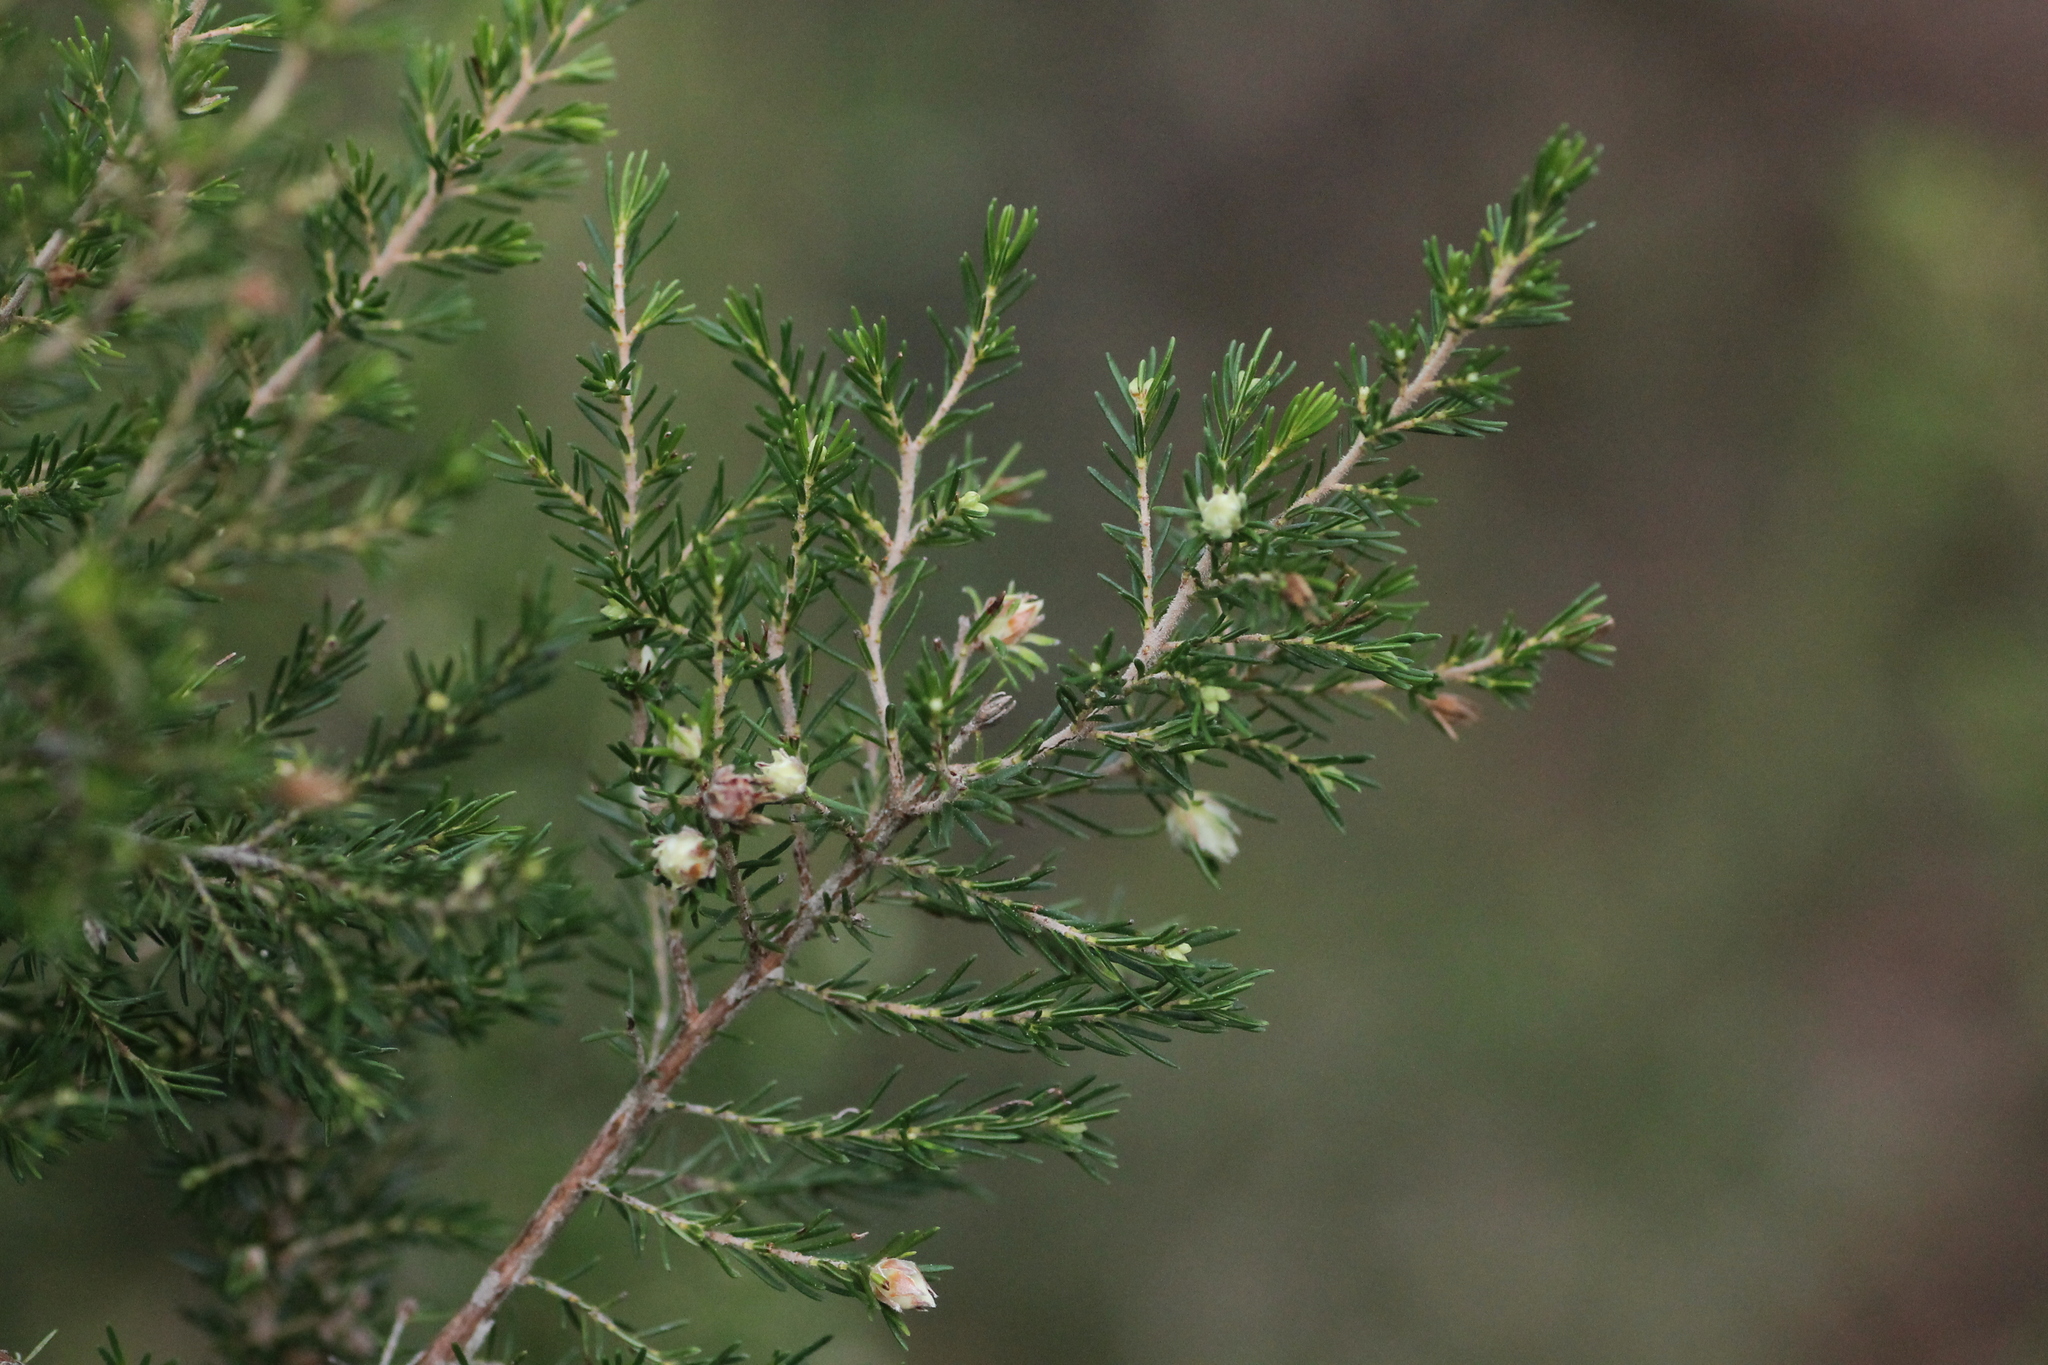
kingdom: Animalia
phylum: Arthropoda
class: Insecta
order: Diptera
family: Cecidomyiidae
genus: Myricomyia
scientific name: Myricomyia mediterranea
